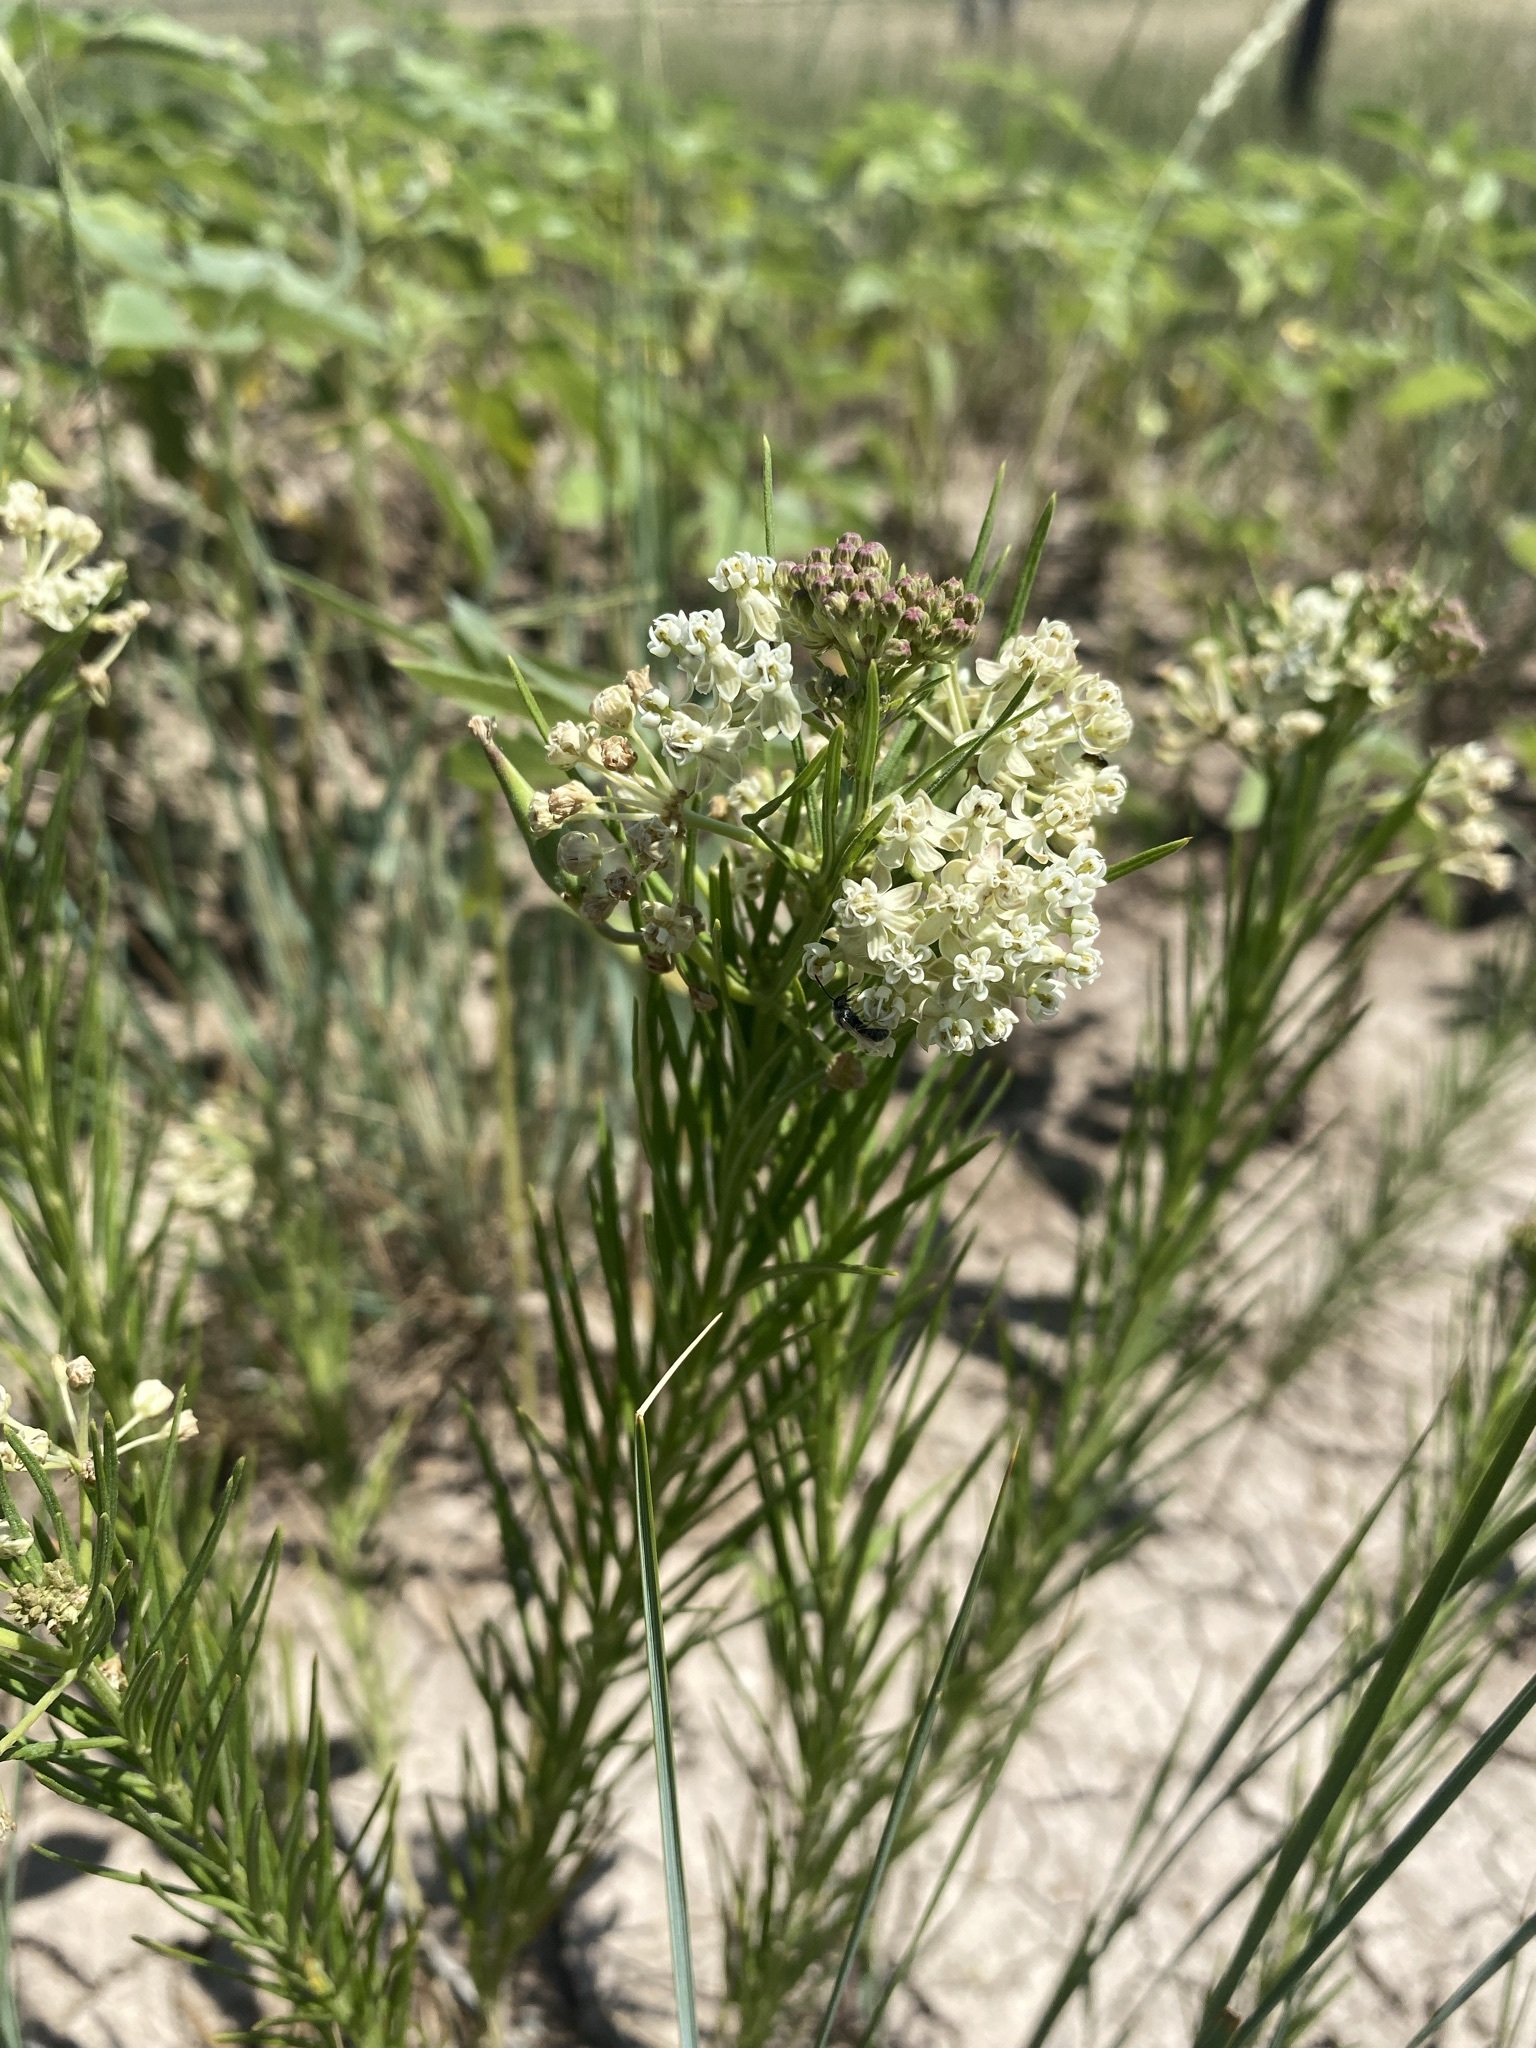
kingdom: Plantae
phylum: Tracheophyta
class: Magnoliopsida
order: Gentianales
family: Apocynaceae
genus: Asclepias
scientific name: Asclepias verticillata
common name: Eastern whorled milkweed
